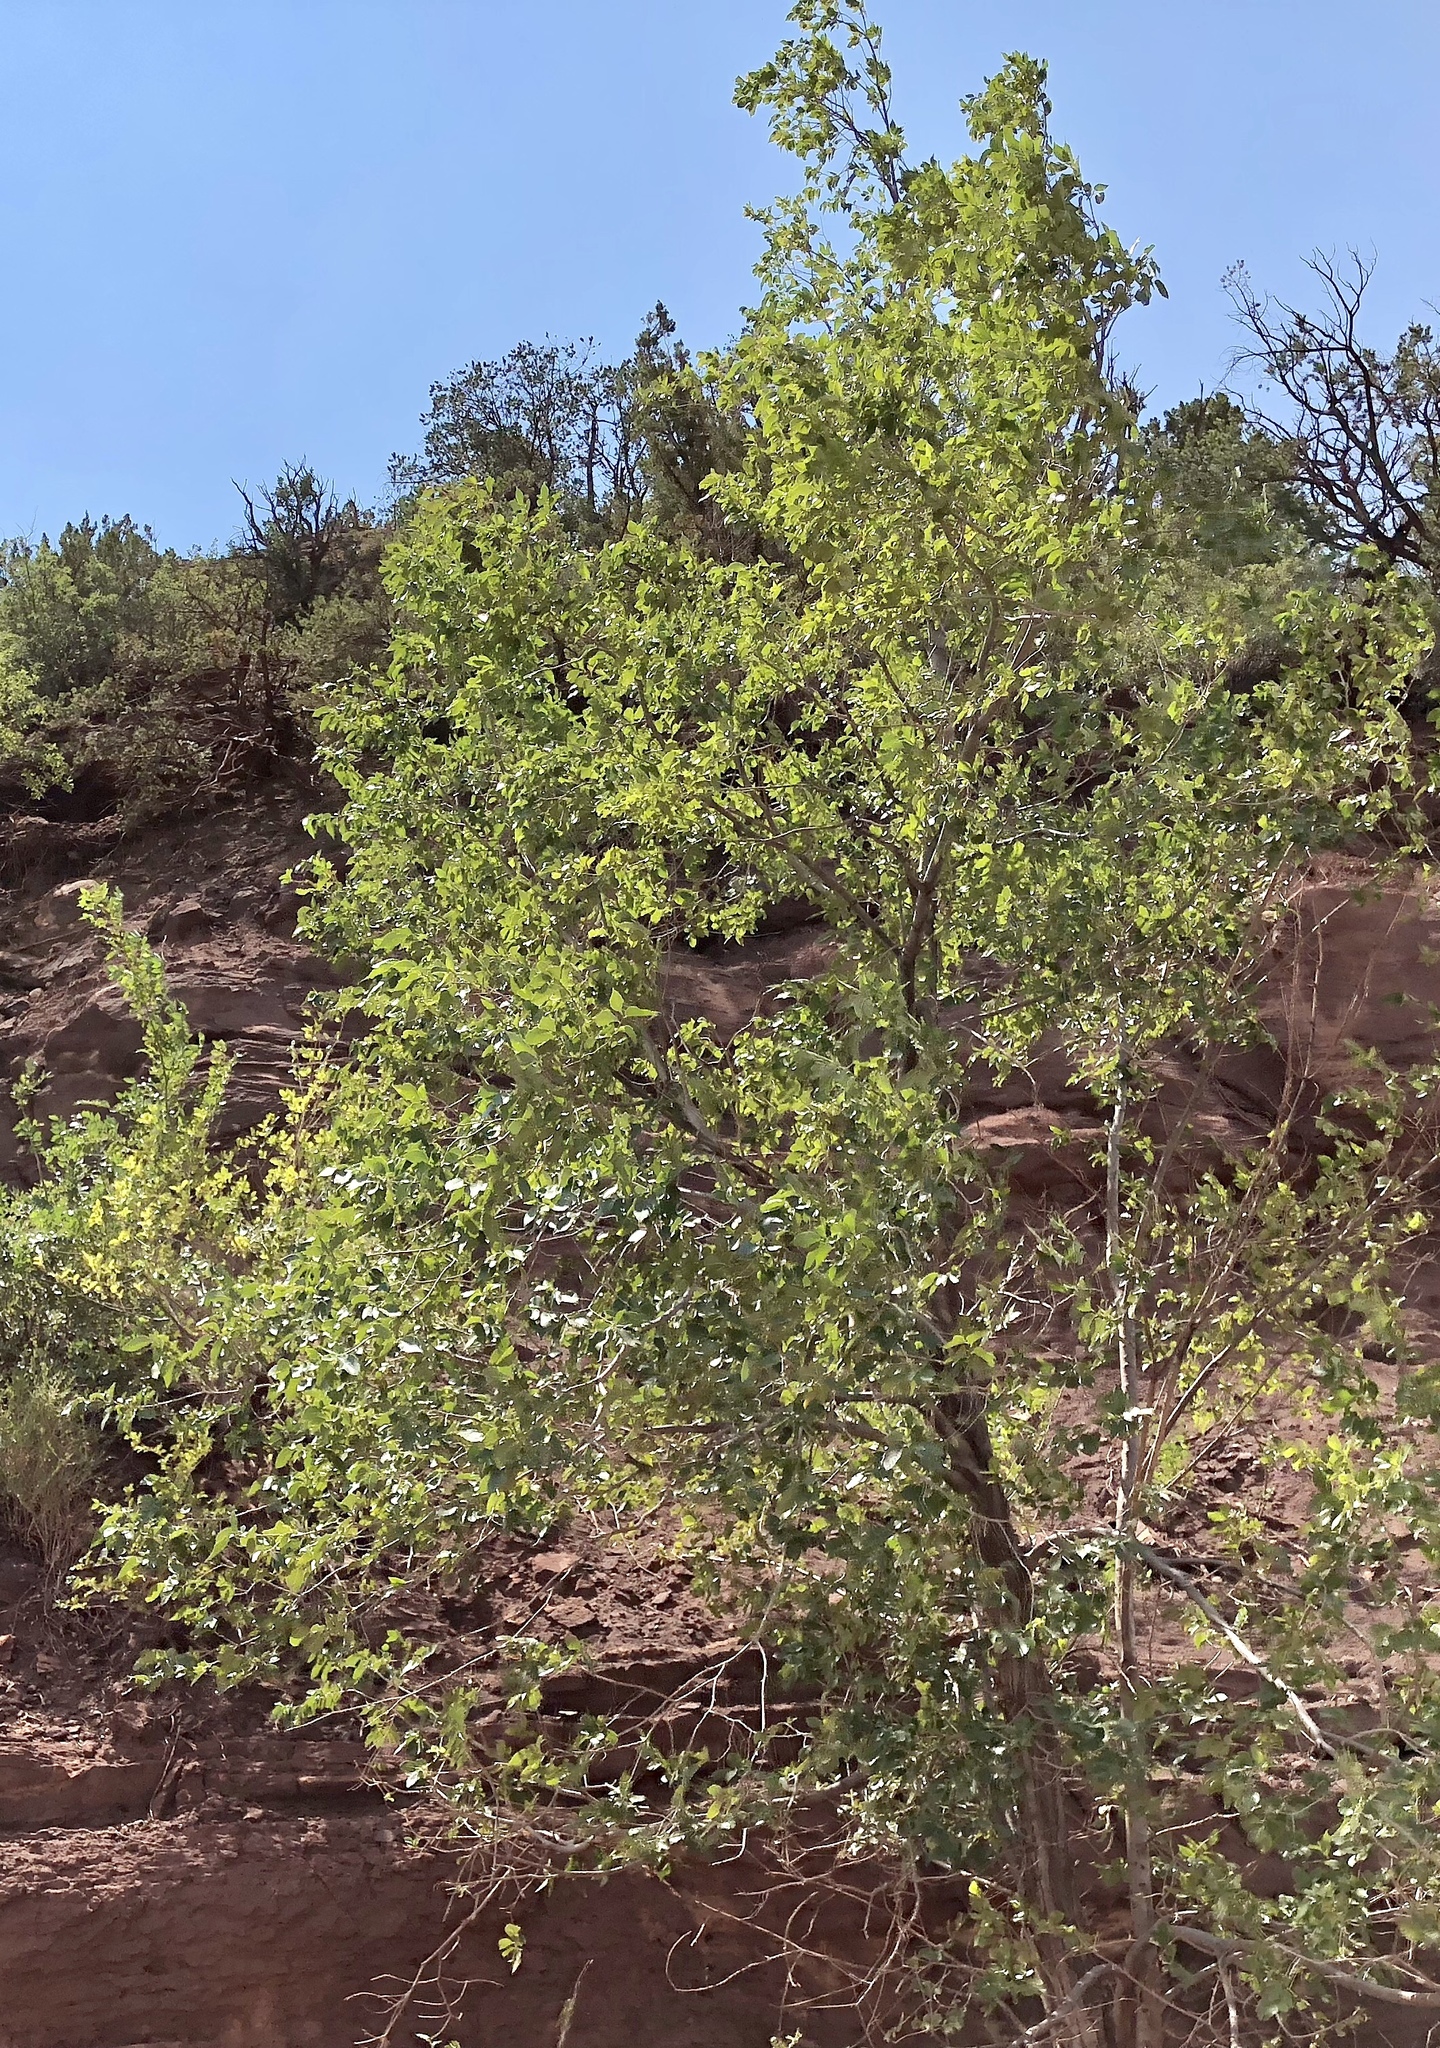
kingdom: Plantae
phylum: Tracheophyta
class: Magnoliopsida
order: Malpighiales
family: Salicaceae
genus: Populus
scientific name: Populus fremontii
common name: Fremont's cottonwood
